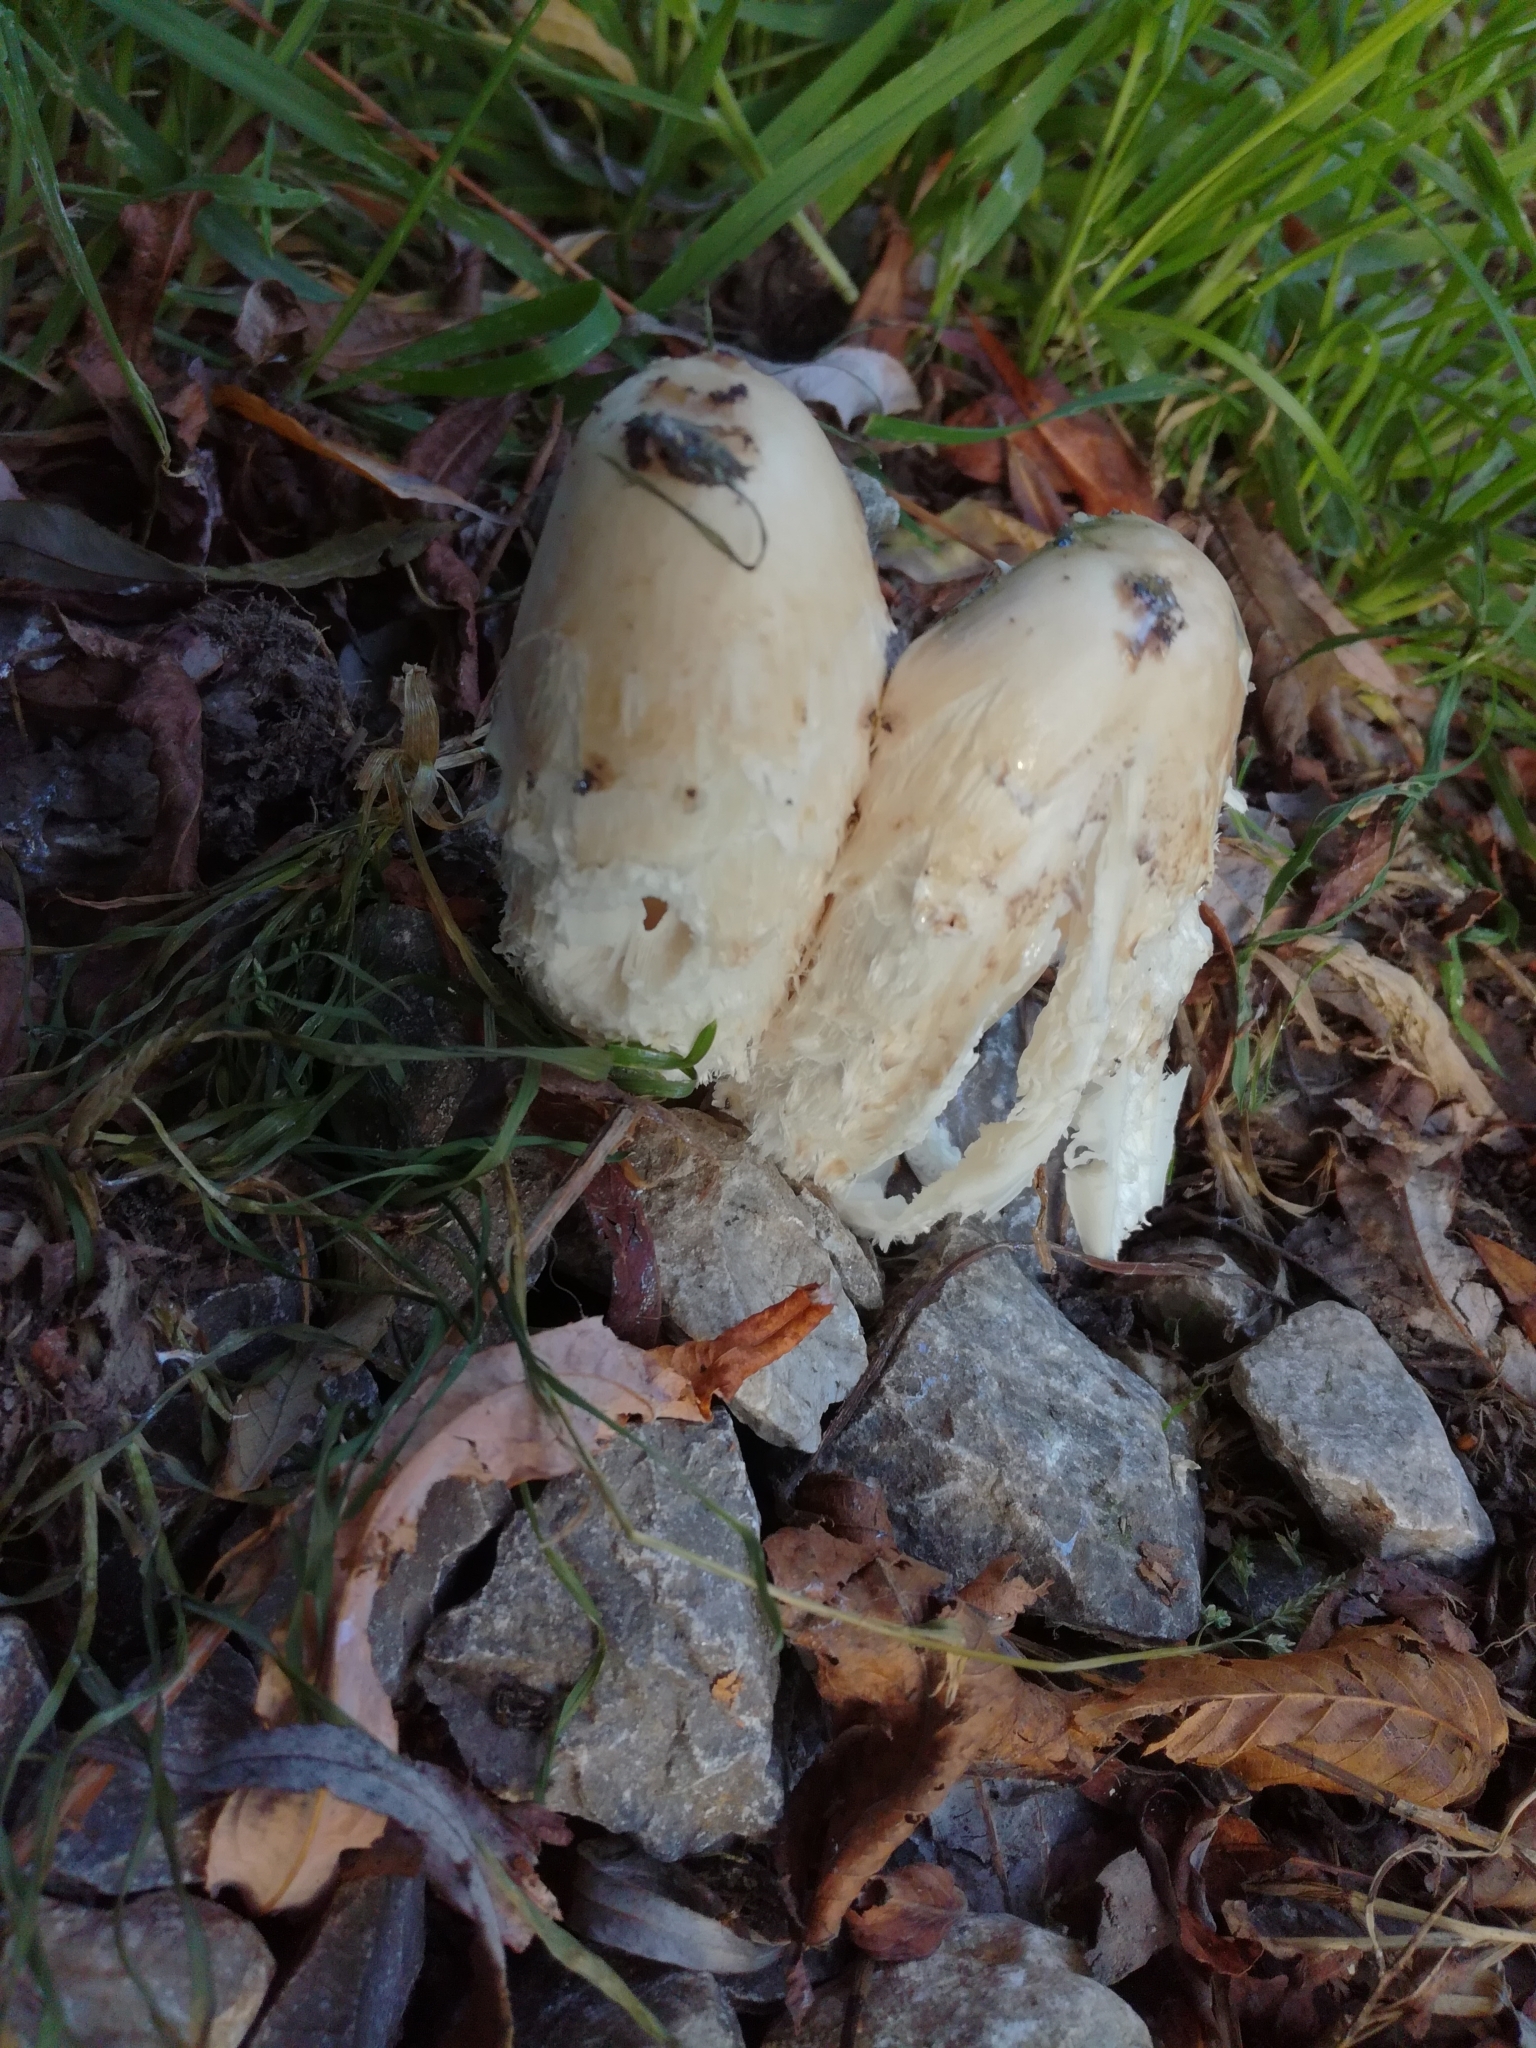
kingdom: Fungi
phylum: Basidiomycota
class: Agaricomycetes
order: Agaricales
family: Agaricaceae
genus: Coprinus
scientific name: Coprinus comatus
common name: Lawyer's wig
